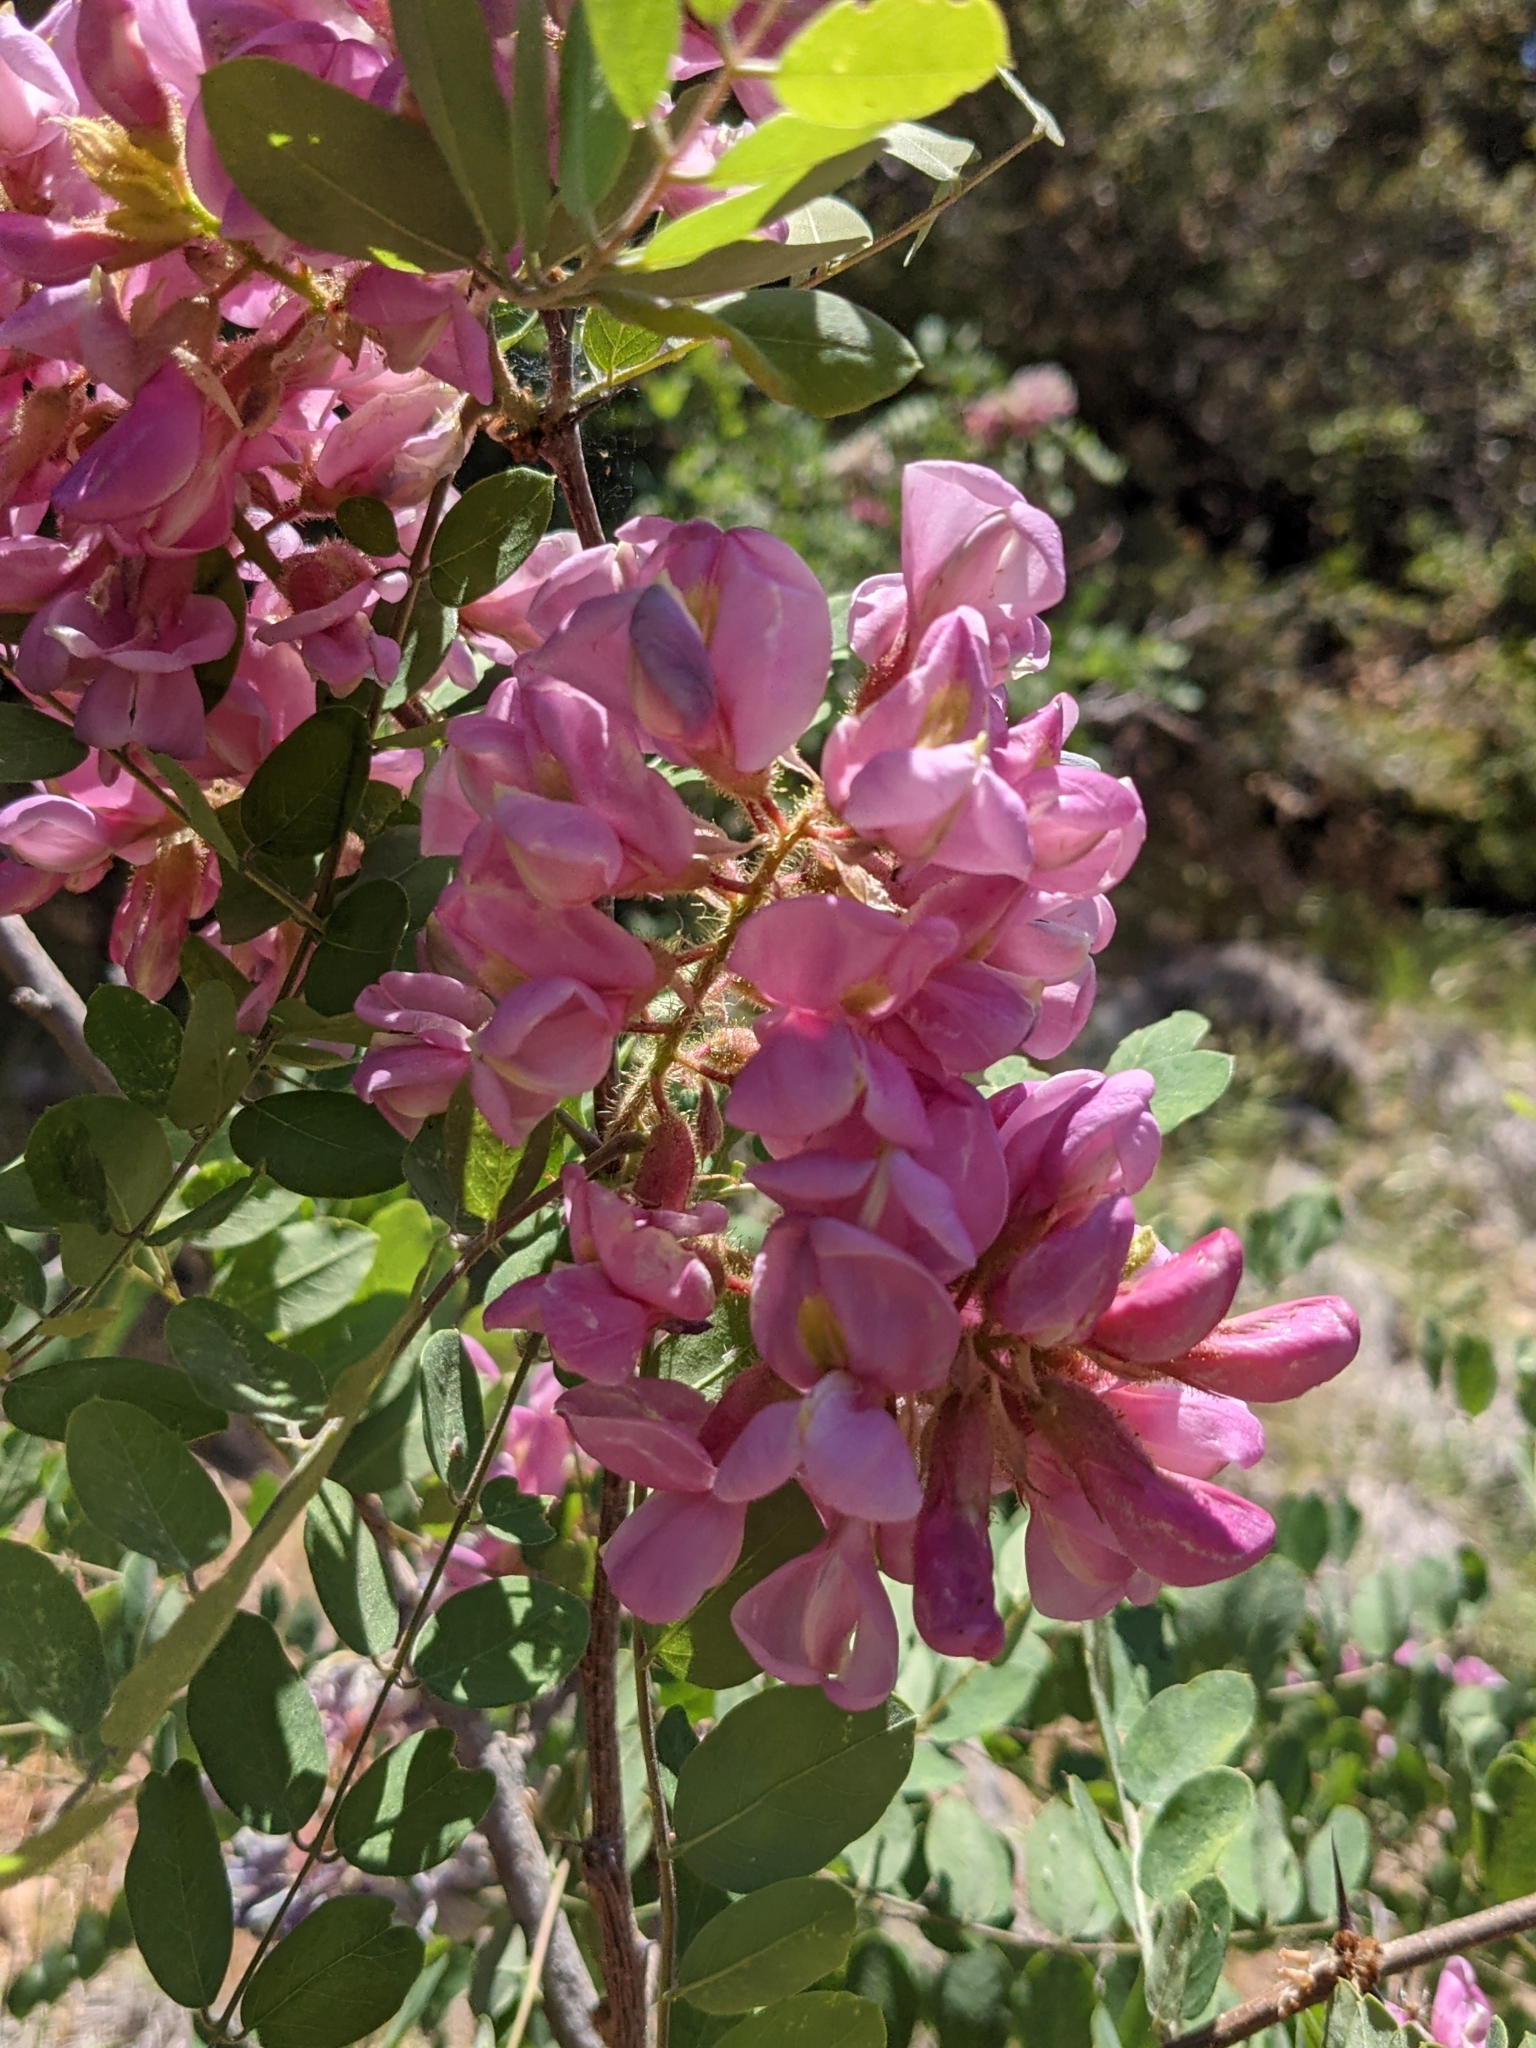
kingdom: Plantae
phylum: Tracheophyta
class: Magnoliopsida
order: Fabales
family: Fabaceae
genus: Robinia
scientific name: Robinia neomexicana
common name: New mexico locust
